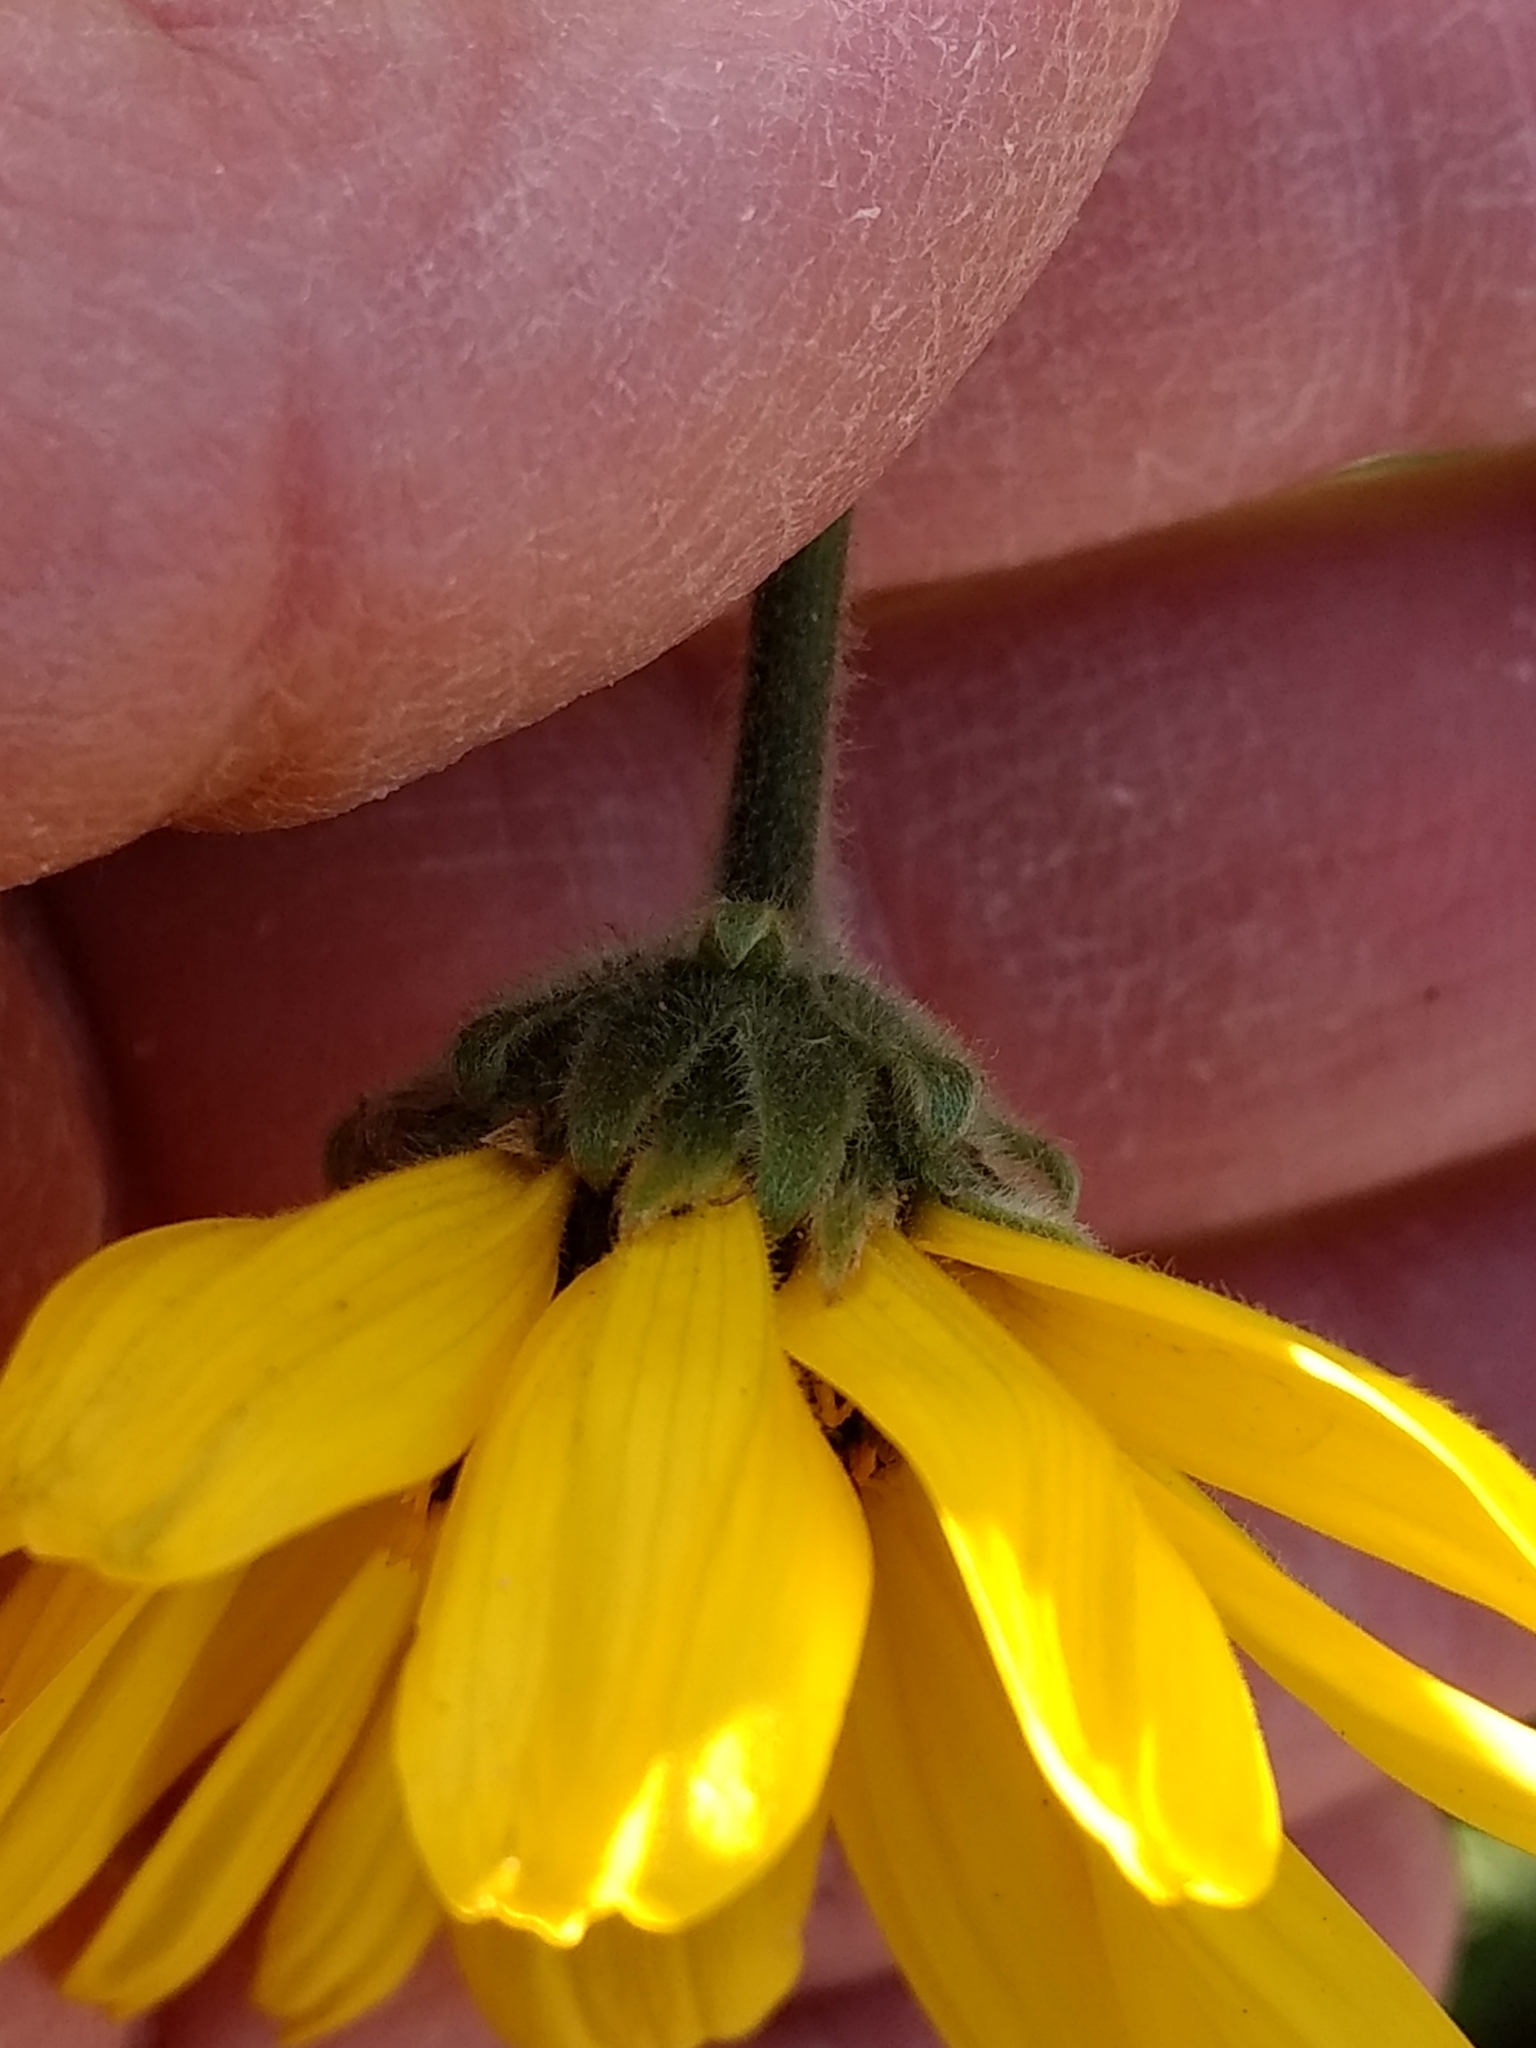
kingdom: Plantae
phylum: Tracheophyta
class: Magnoliopsida
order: Asterales
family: Asteraceae
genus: Encelia
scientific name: Encelia californica
